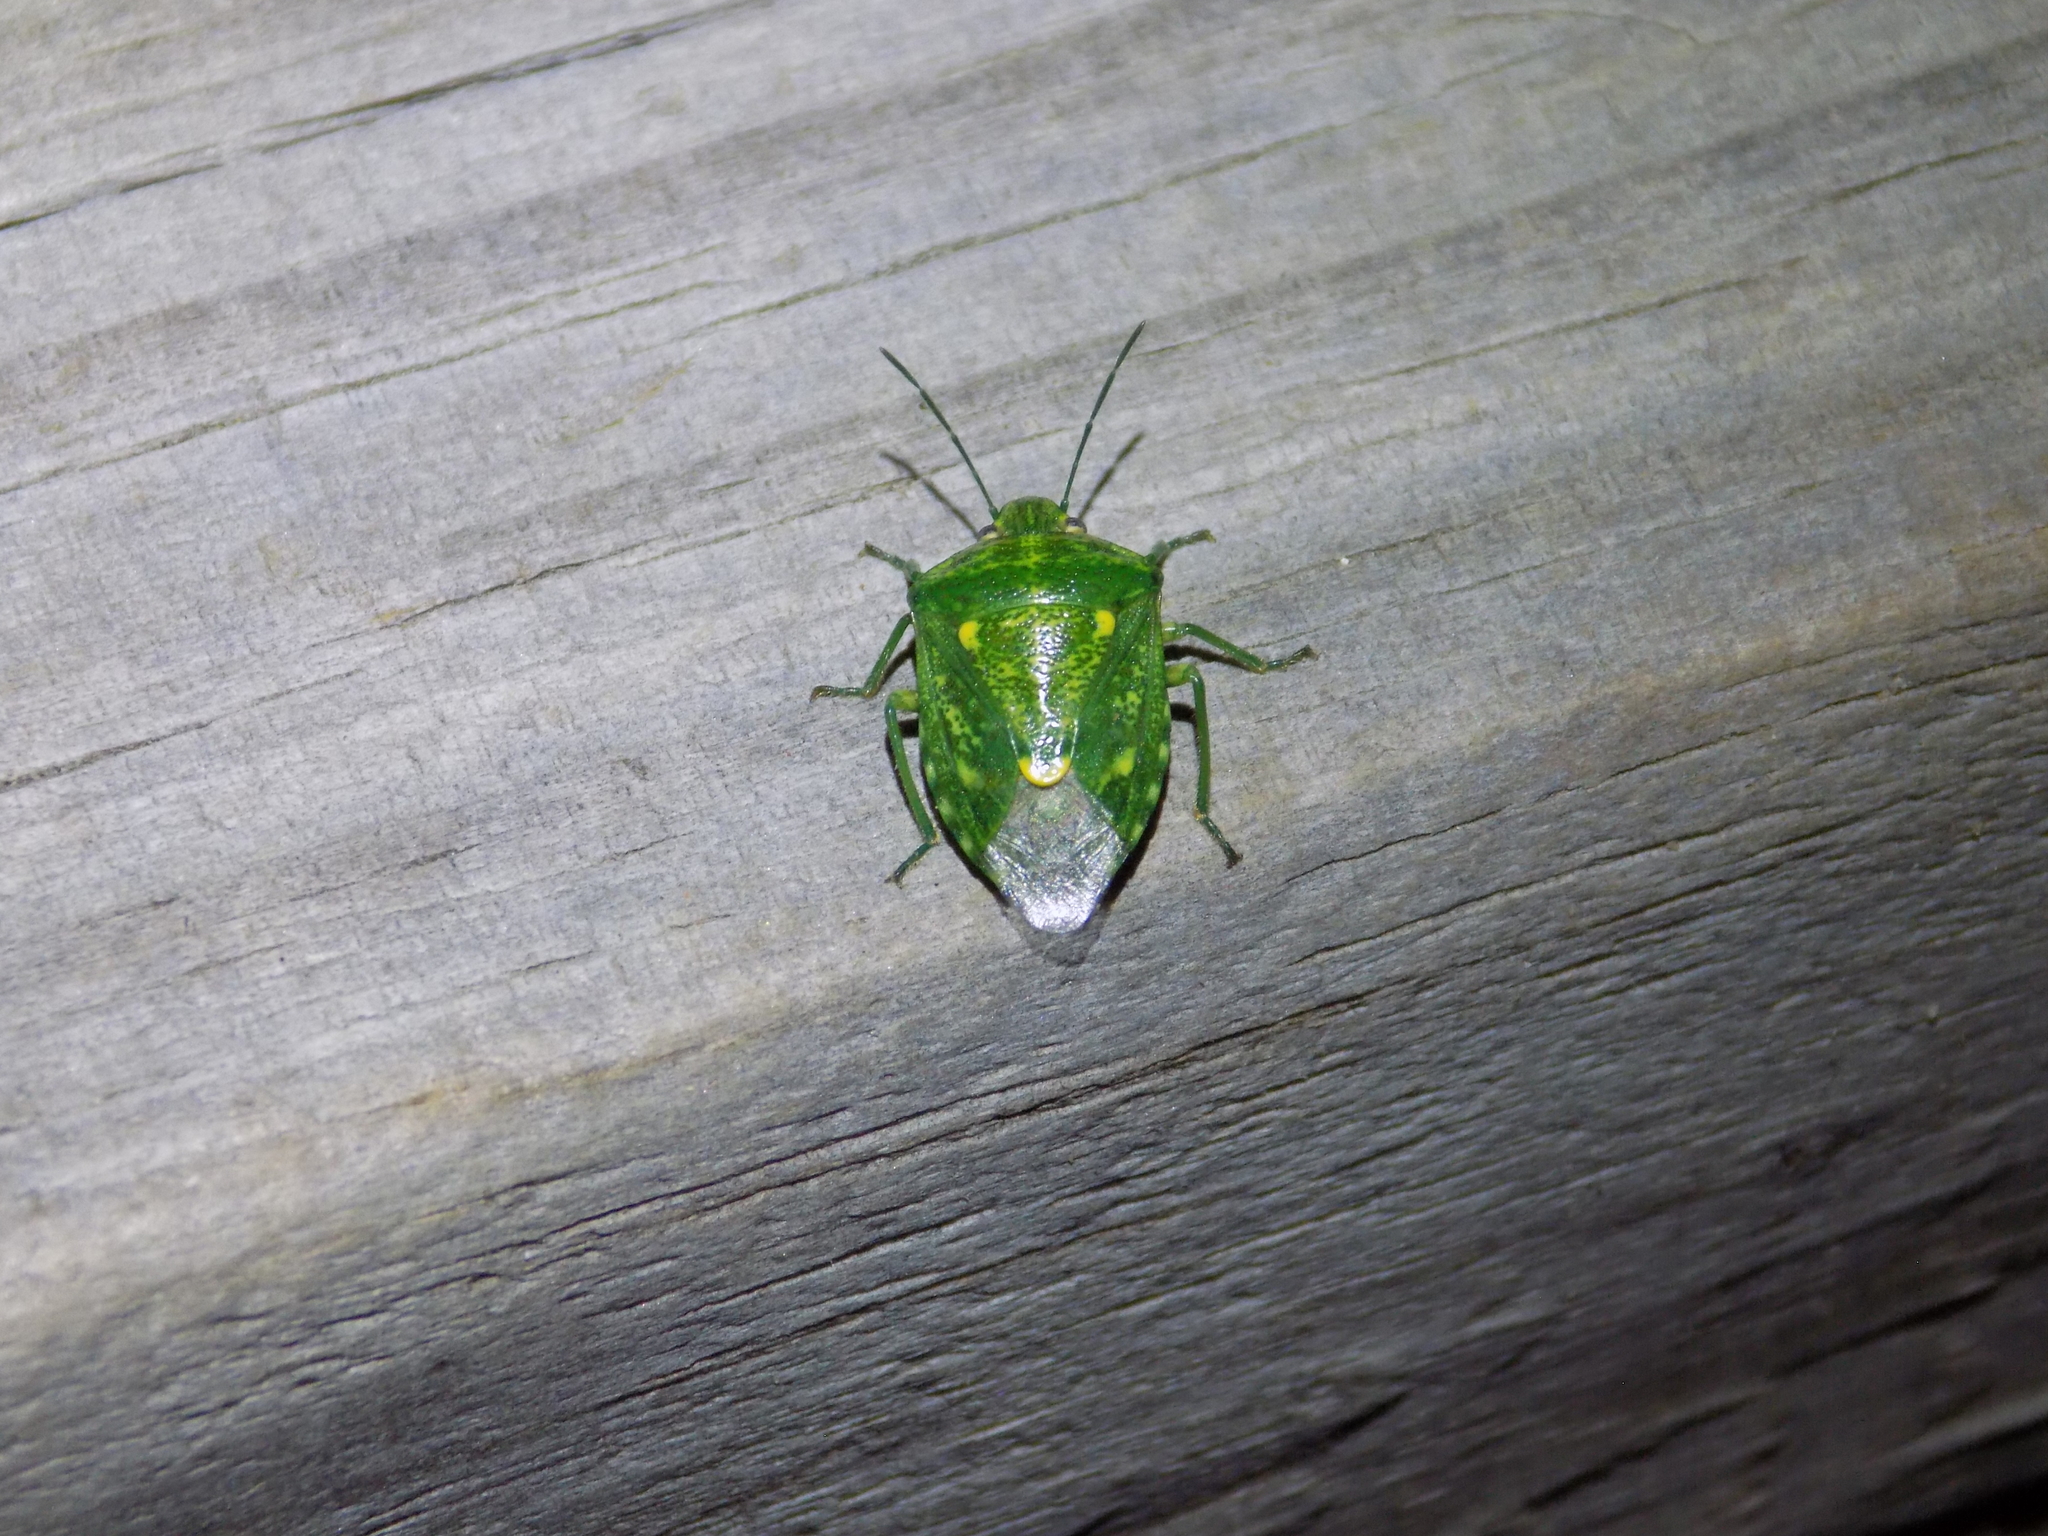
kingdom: Animalia
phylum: Arthropoda
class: Insecta
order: Hemiptera
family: Pentatomidae
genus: Banasa
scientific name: Banasa euchlora
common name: Cedar berry bug
